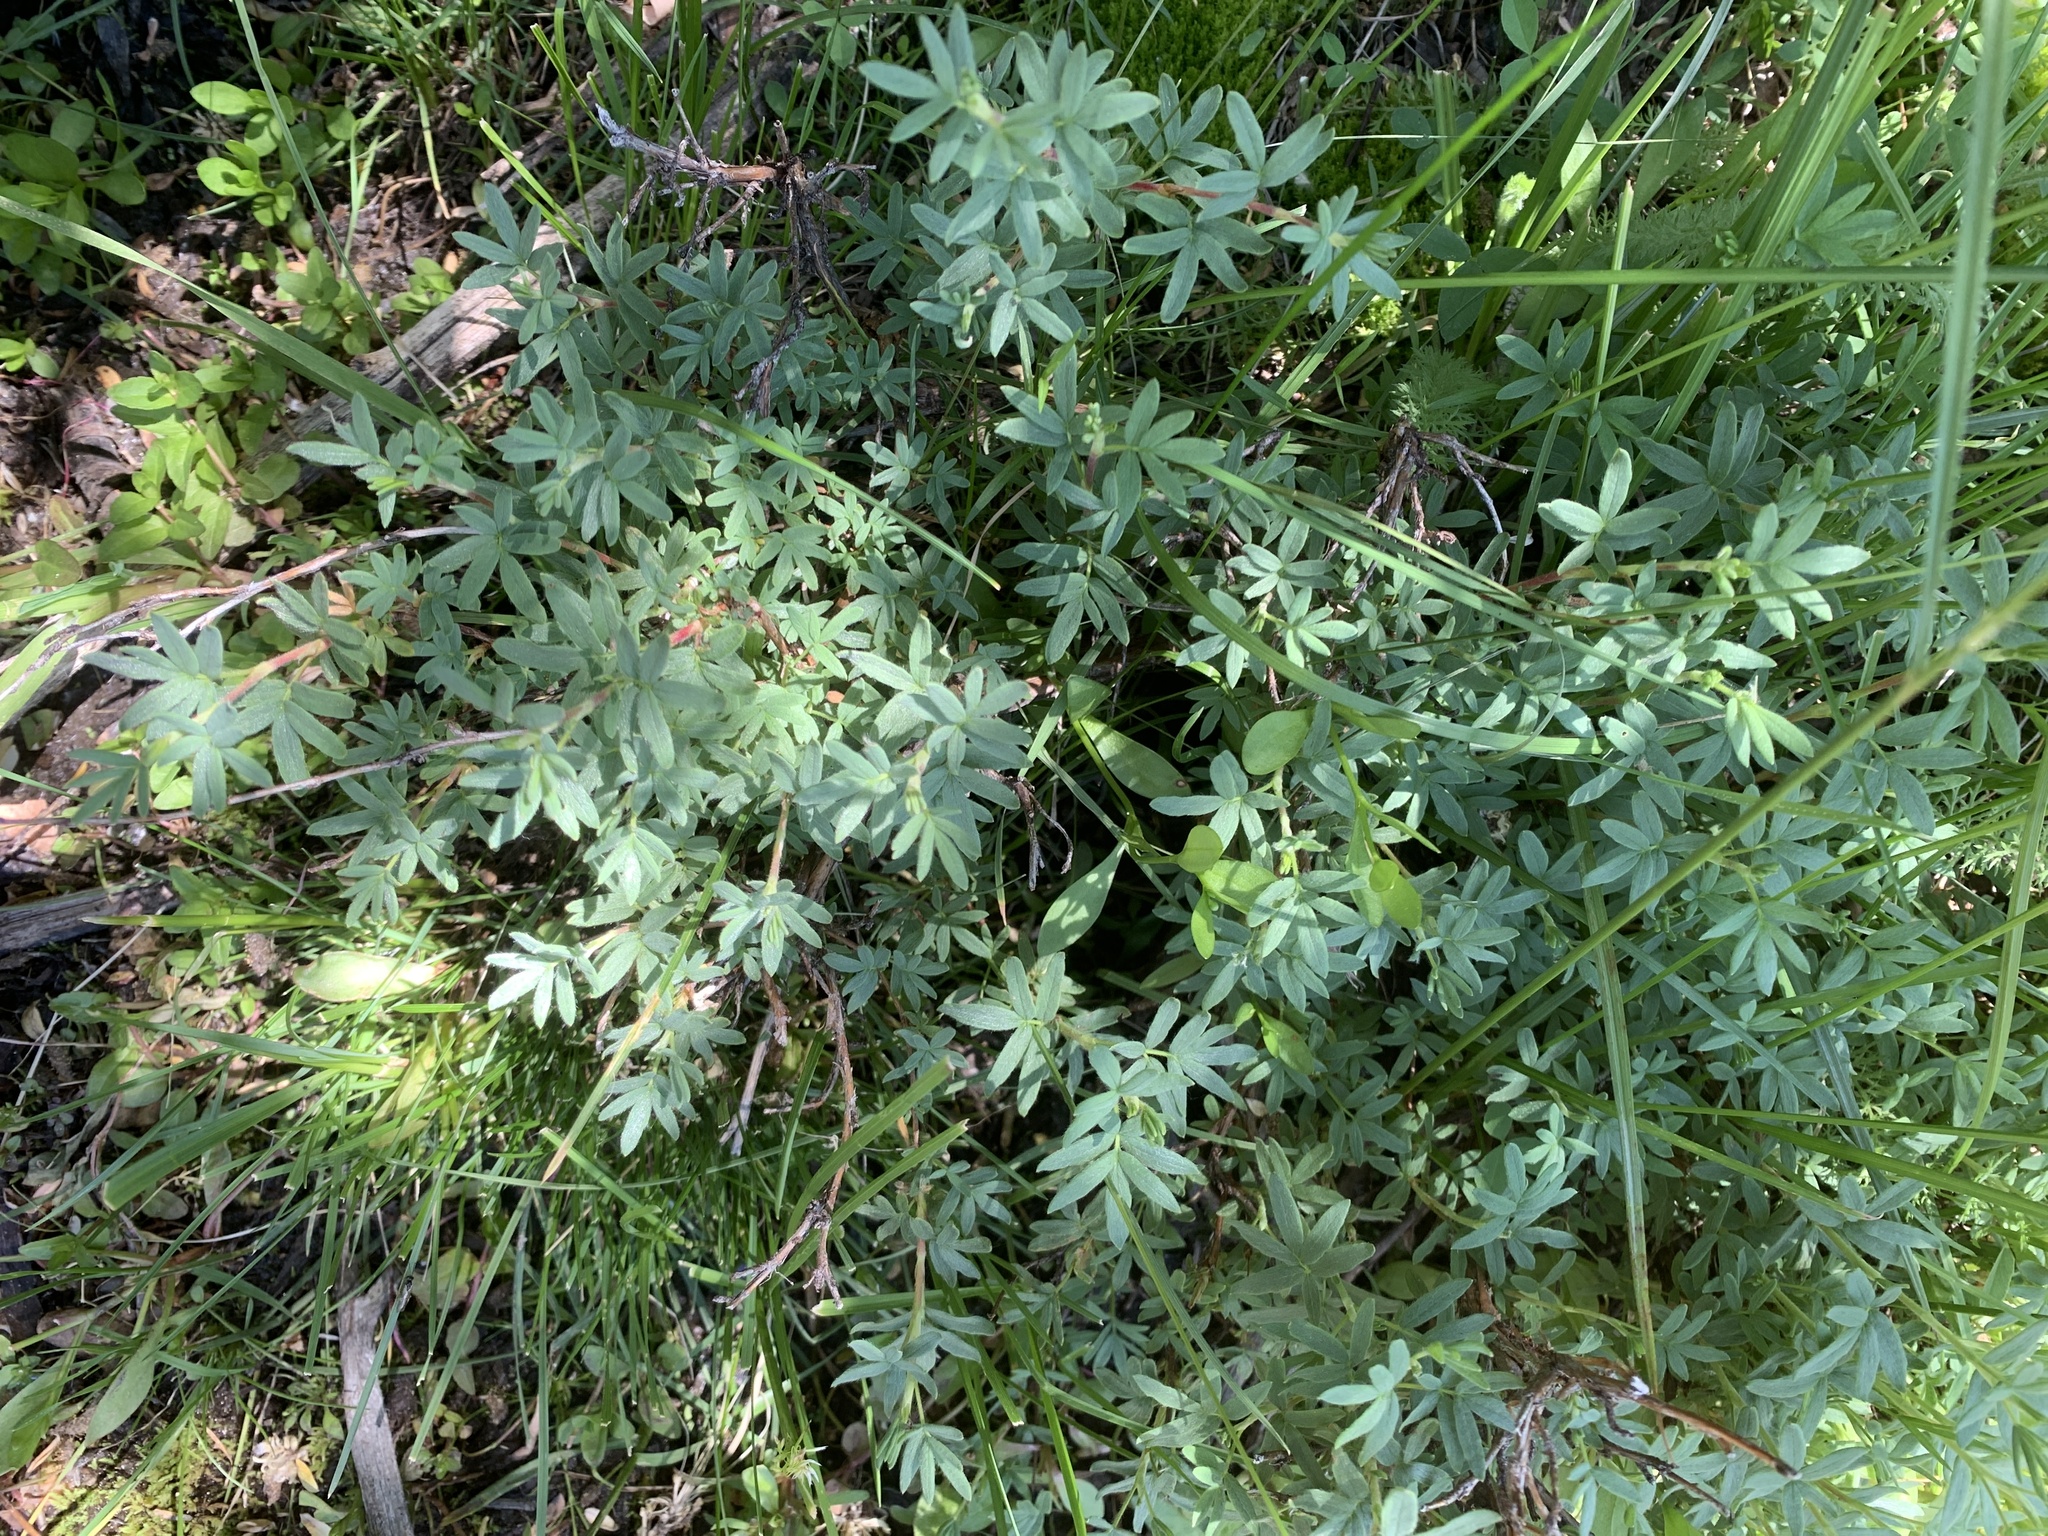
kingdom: Plantae
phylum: Tracheophyta
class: Magnoliopsida
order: Rosales
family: Rosaceae
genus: Dasiphora
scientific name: Dasiphora fruticosa
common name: Shrubby cinquefoil
